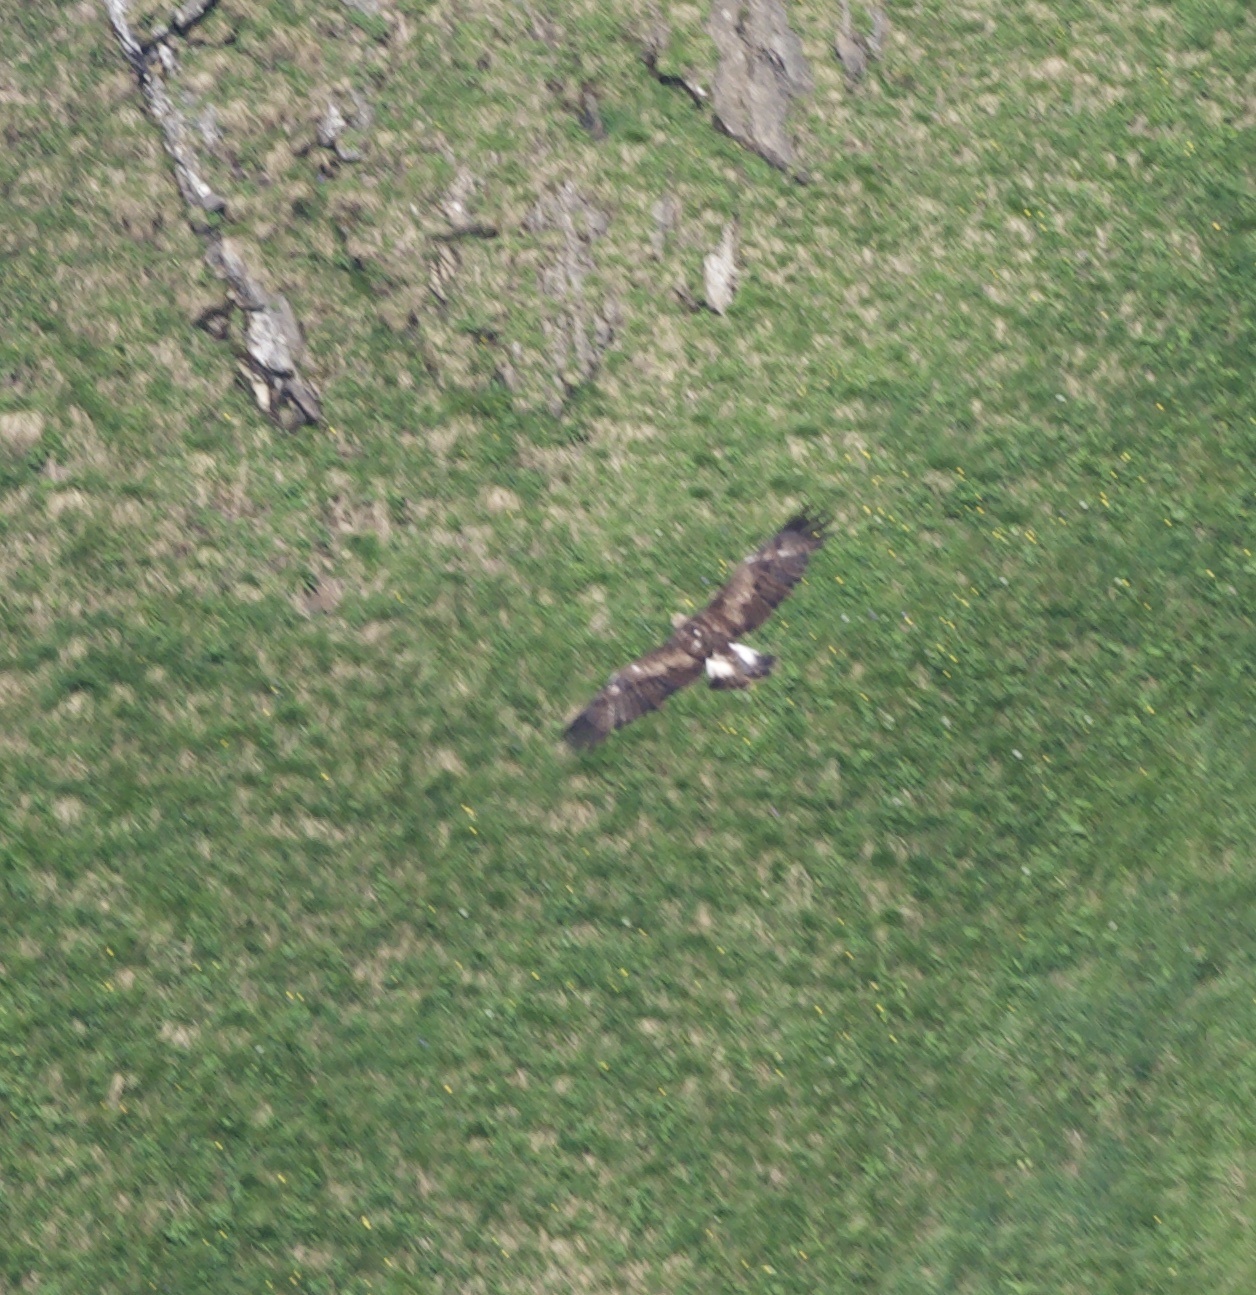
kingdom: Animalia
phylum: Chordata
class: Aves
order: Accipitriformes
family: Accipitridae
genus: Aquila
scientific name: Aquila chrysaetos
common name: Golden eagle
